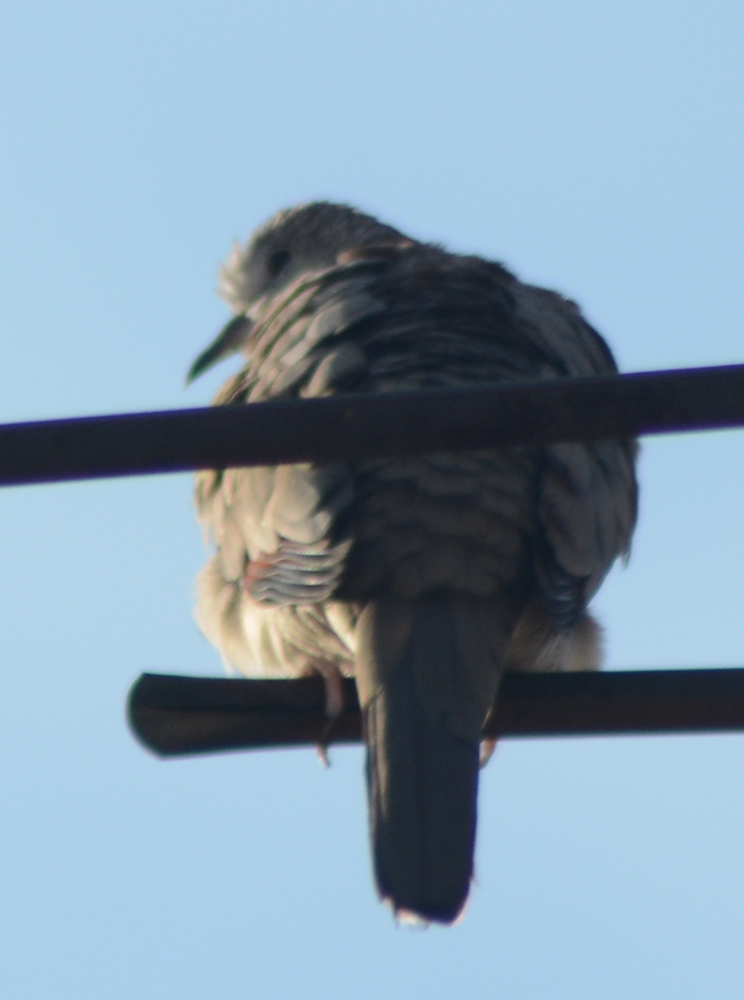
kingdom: Animalia
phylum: Chordata
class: Aves
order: Columbiformes
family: Columbidae
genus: Columbina
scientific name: Columbina inca
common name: Inca dove
